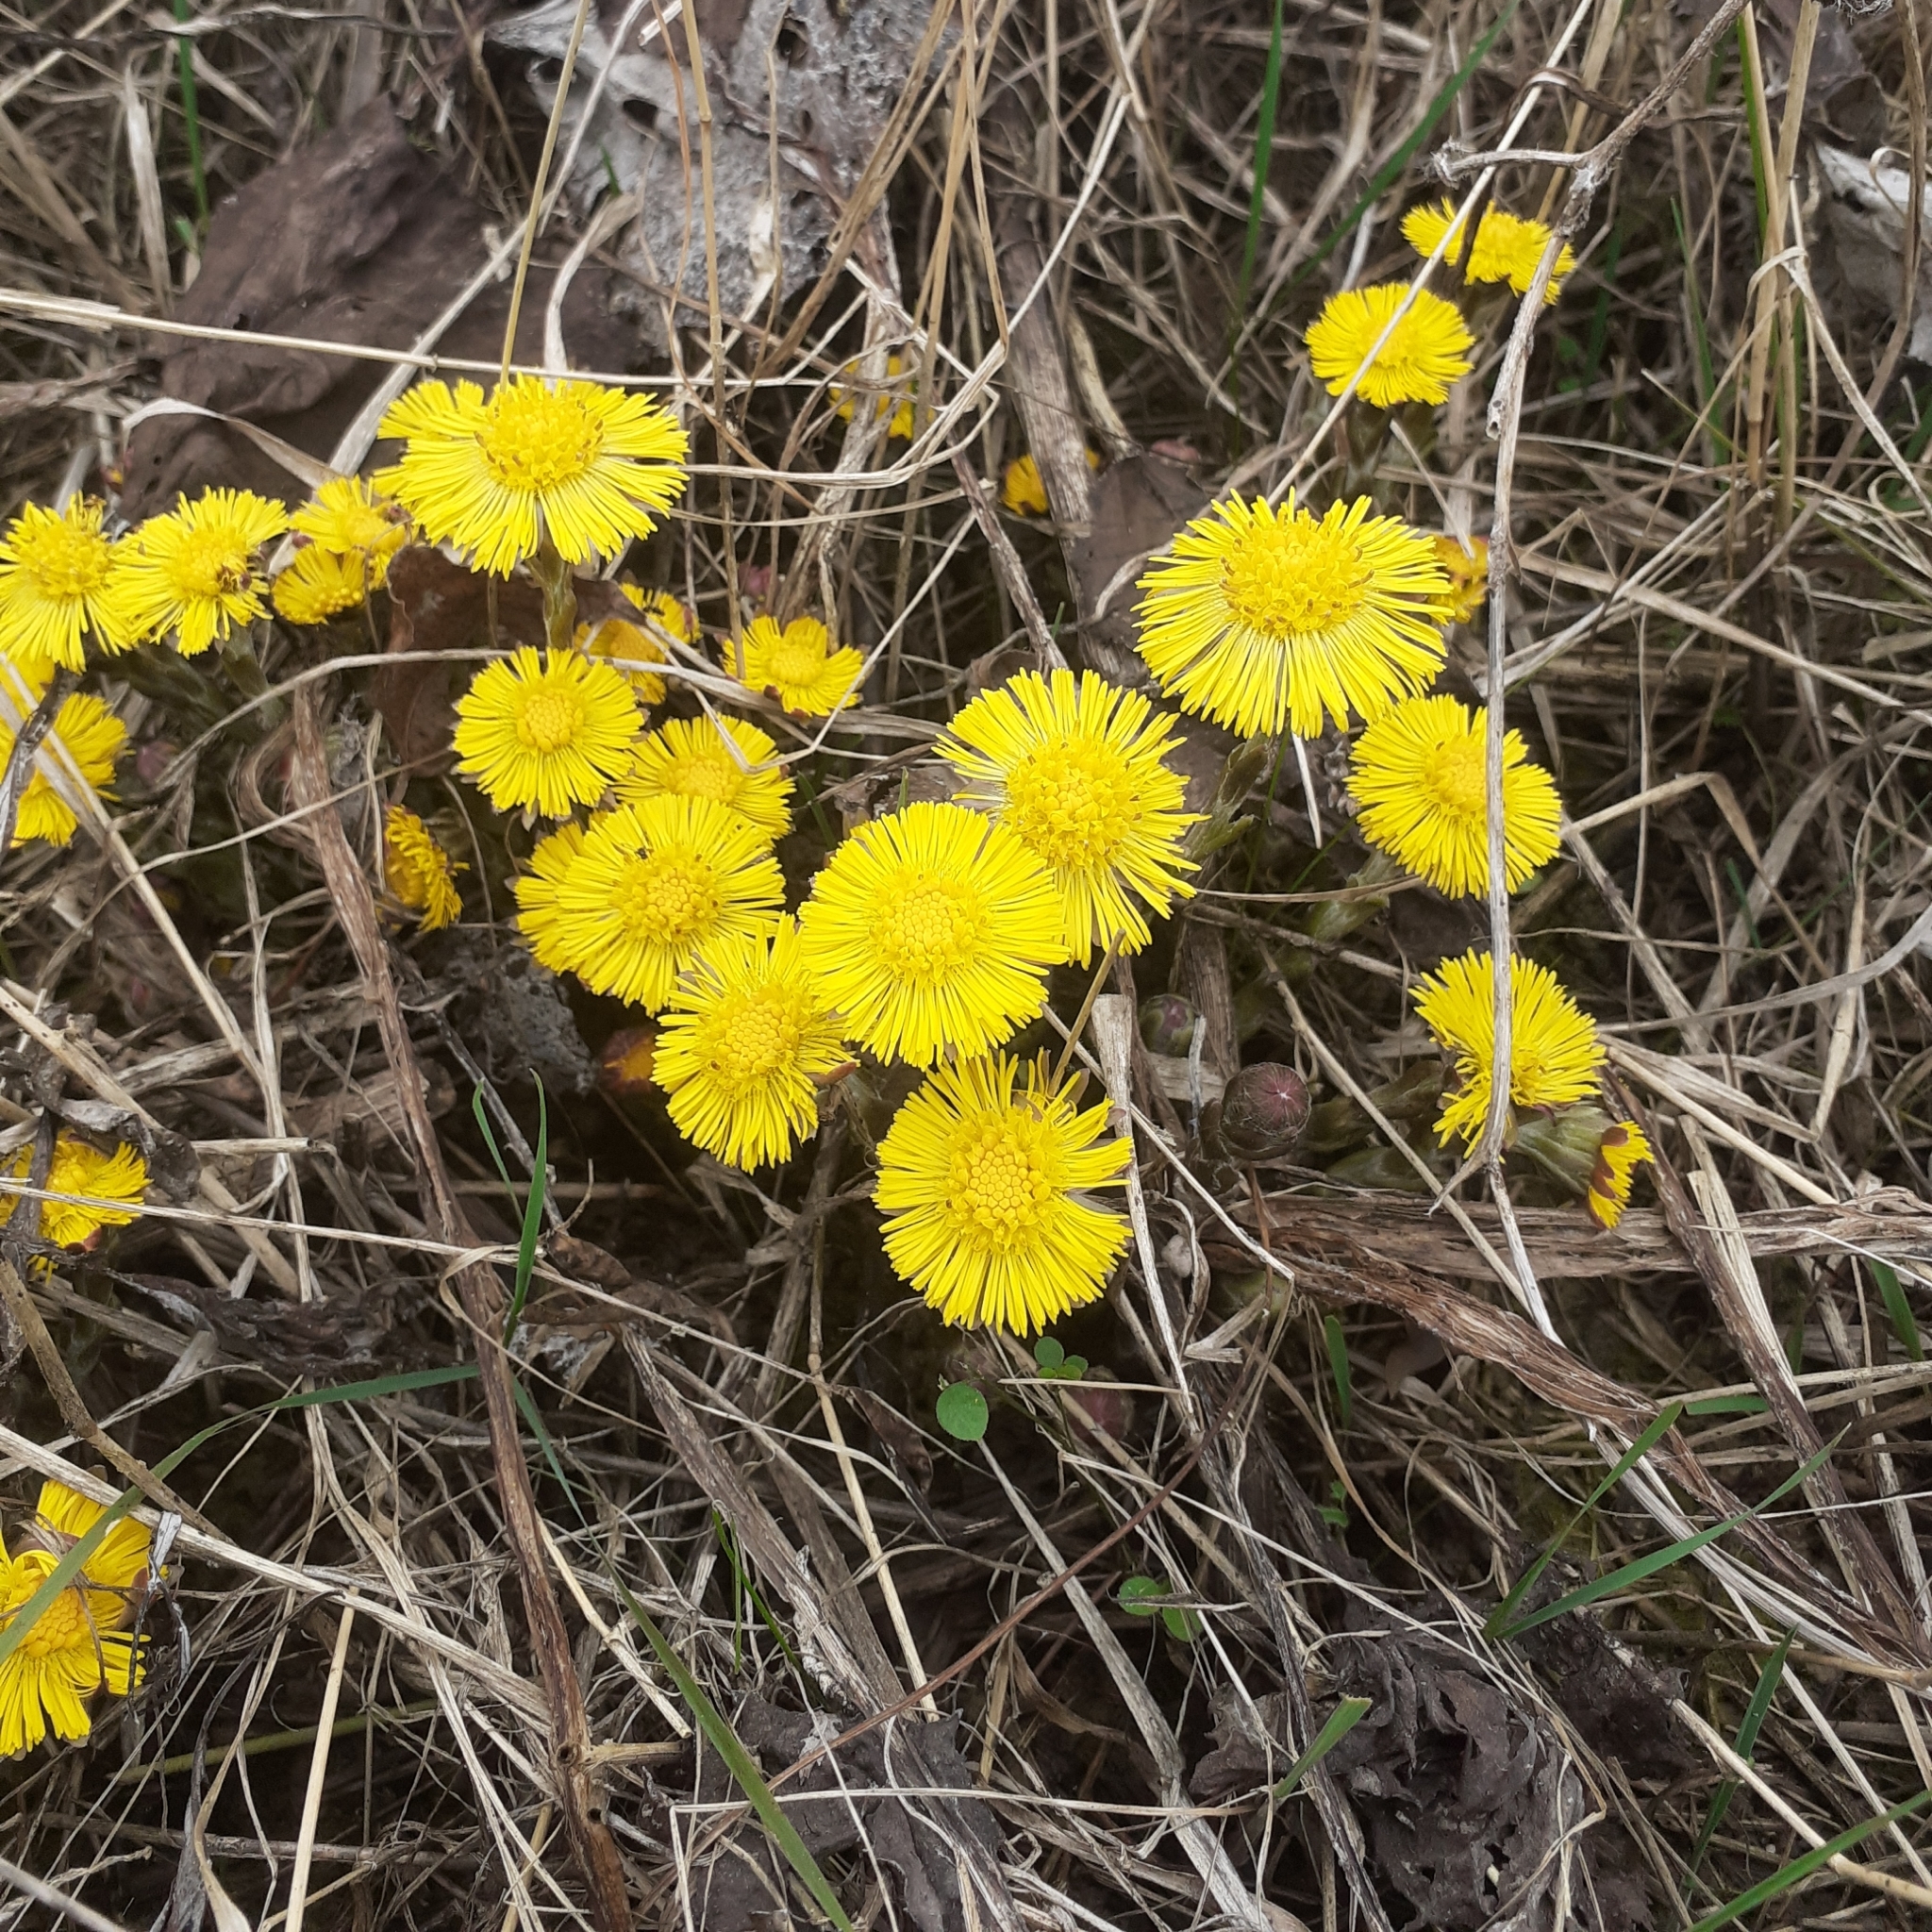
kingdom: Plantae
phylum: Tracheophyta
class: Magnoliopsida
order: Asterales
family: Asteraceae
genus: Tussilago
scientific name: Tussilago farfara
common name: Coltsfoot
